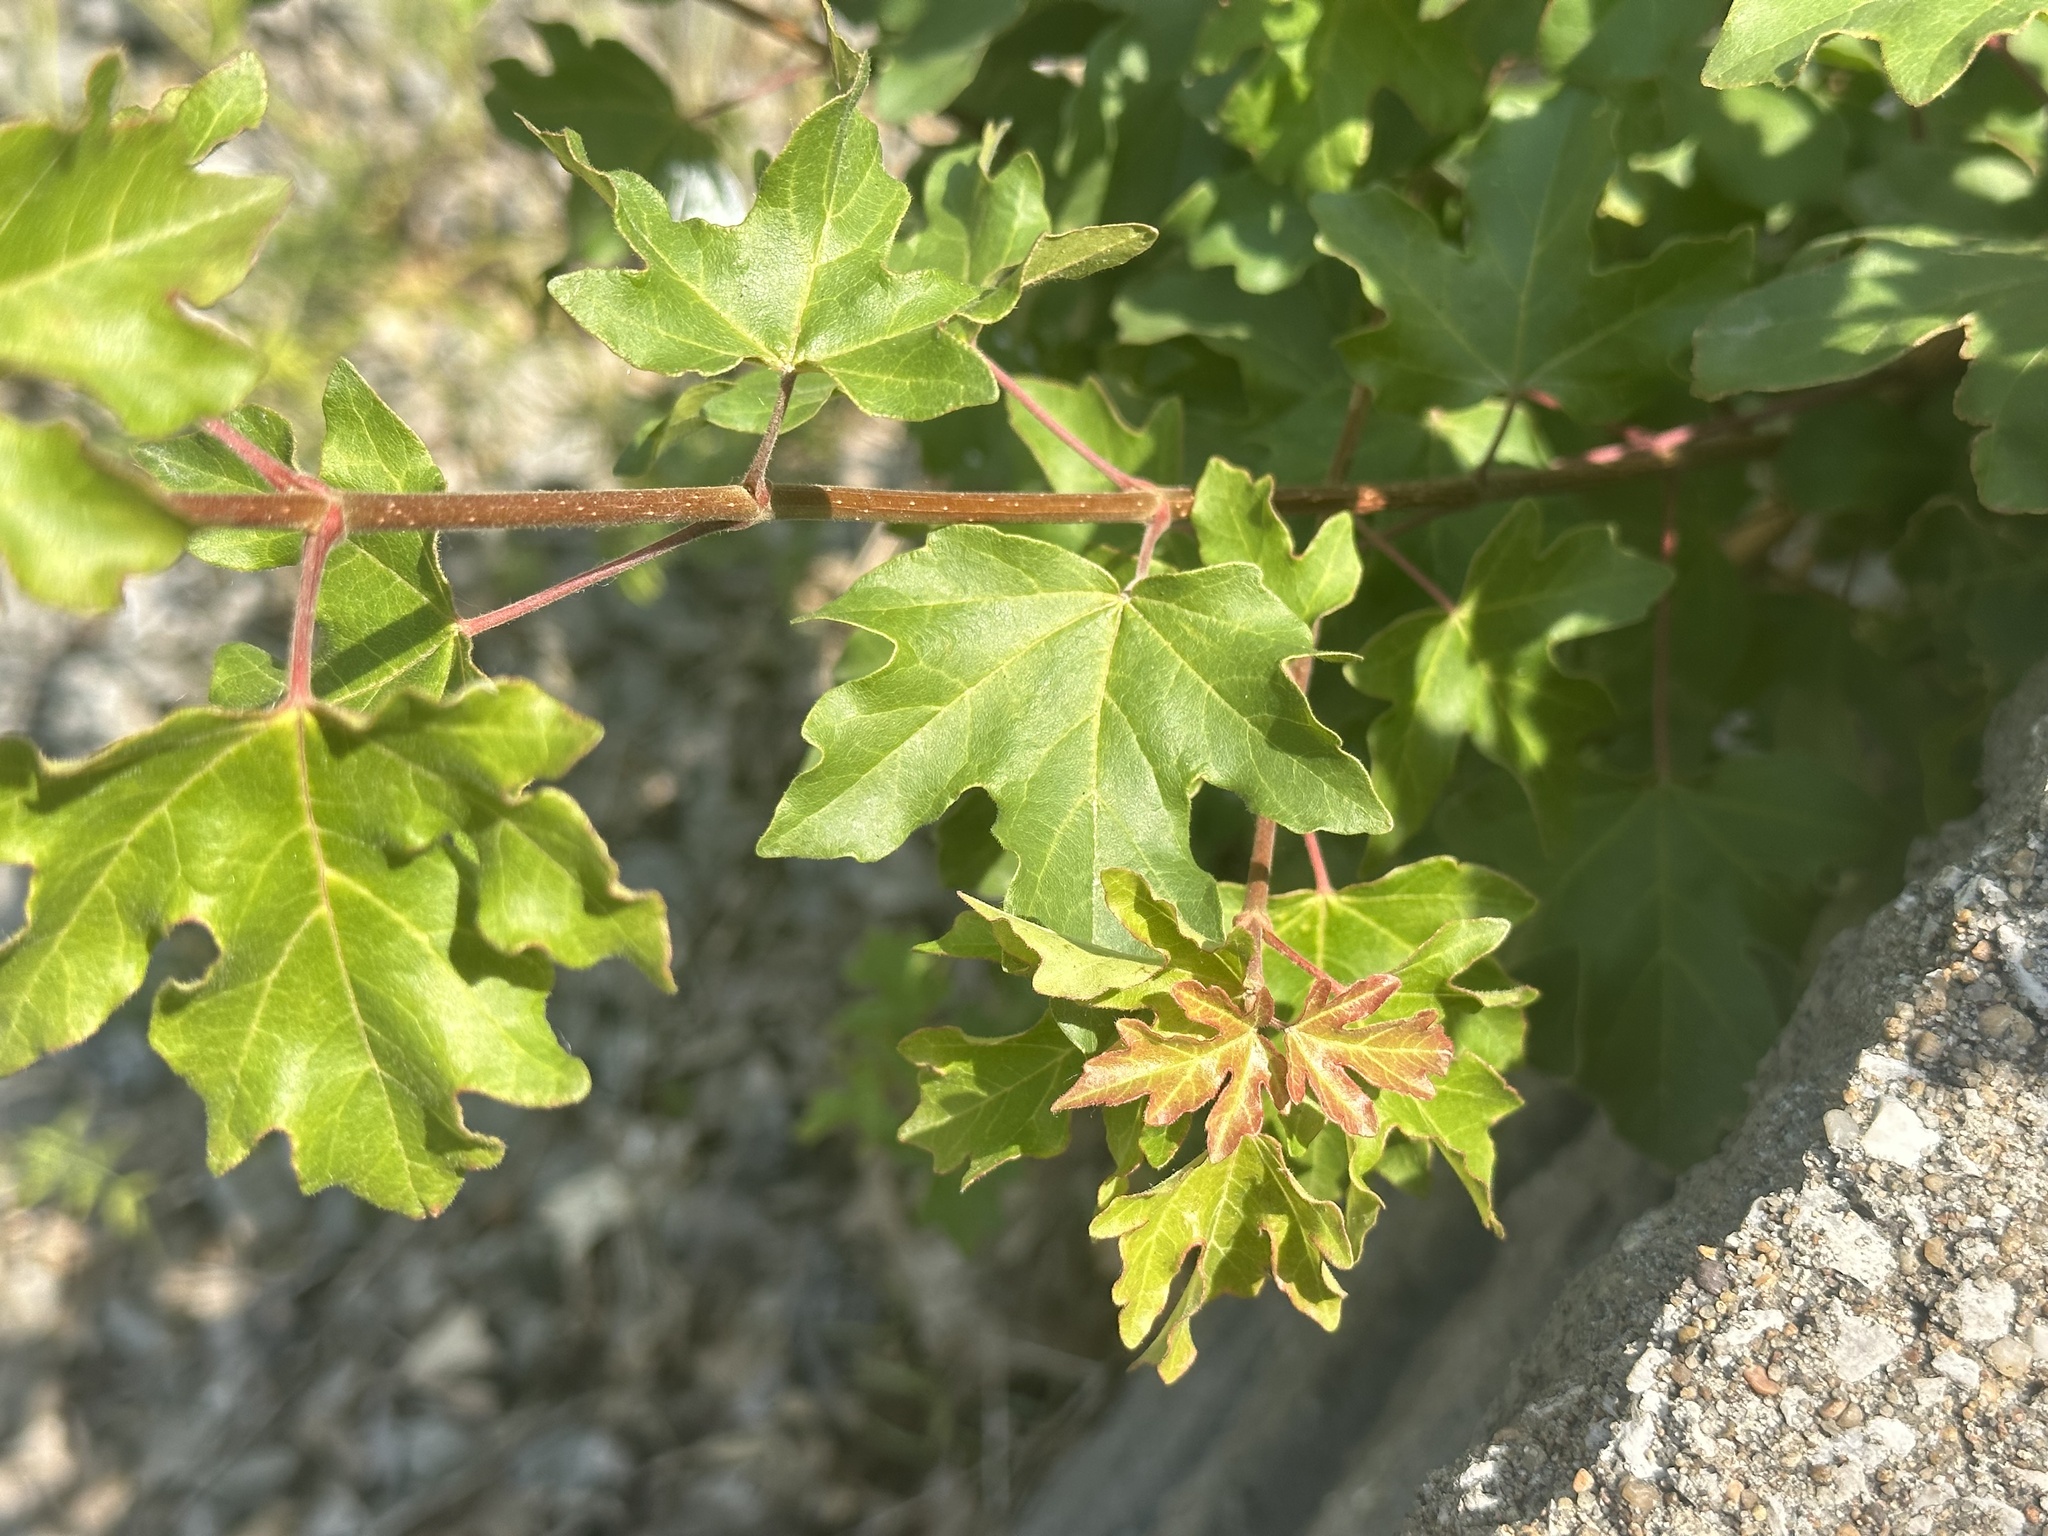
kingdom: Plantae
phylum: Tracheophyta
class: Magnoliopsida
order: Sapindales
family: Sapindaceae
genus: Acer
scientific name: Acer campestre
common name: Field maple
